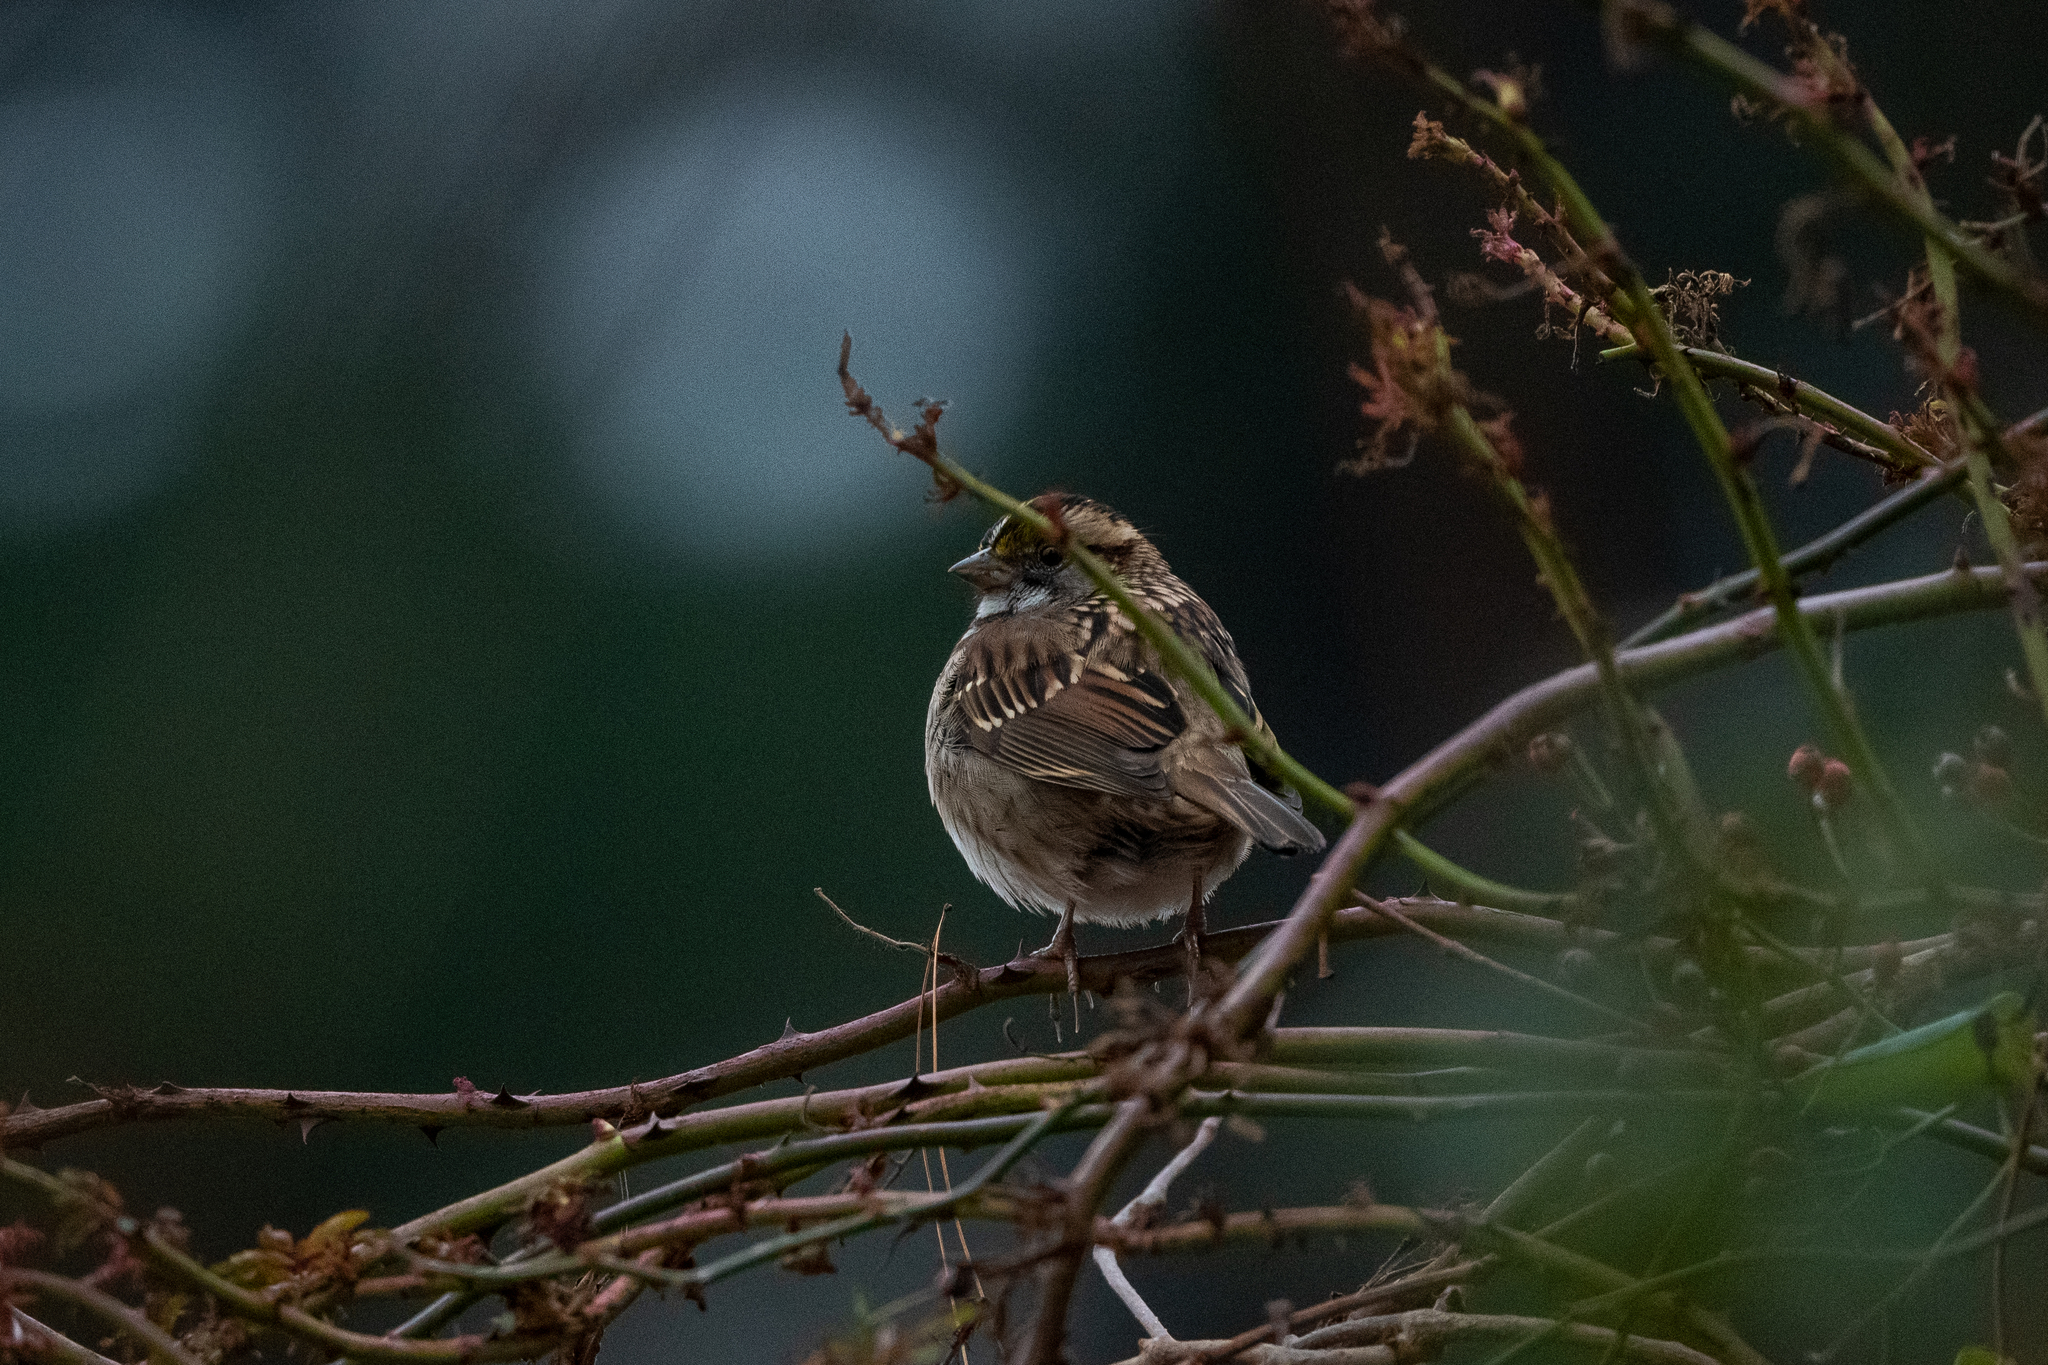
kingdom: Animalia
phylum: Chordata
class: Aves
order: Passeriformes
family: Passerellidae
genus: Zonotrichia
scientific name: Zonotrichia albicollis
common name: White-throated sparrow
